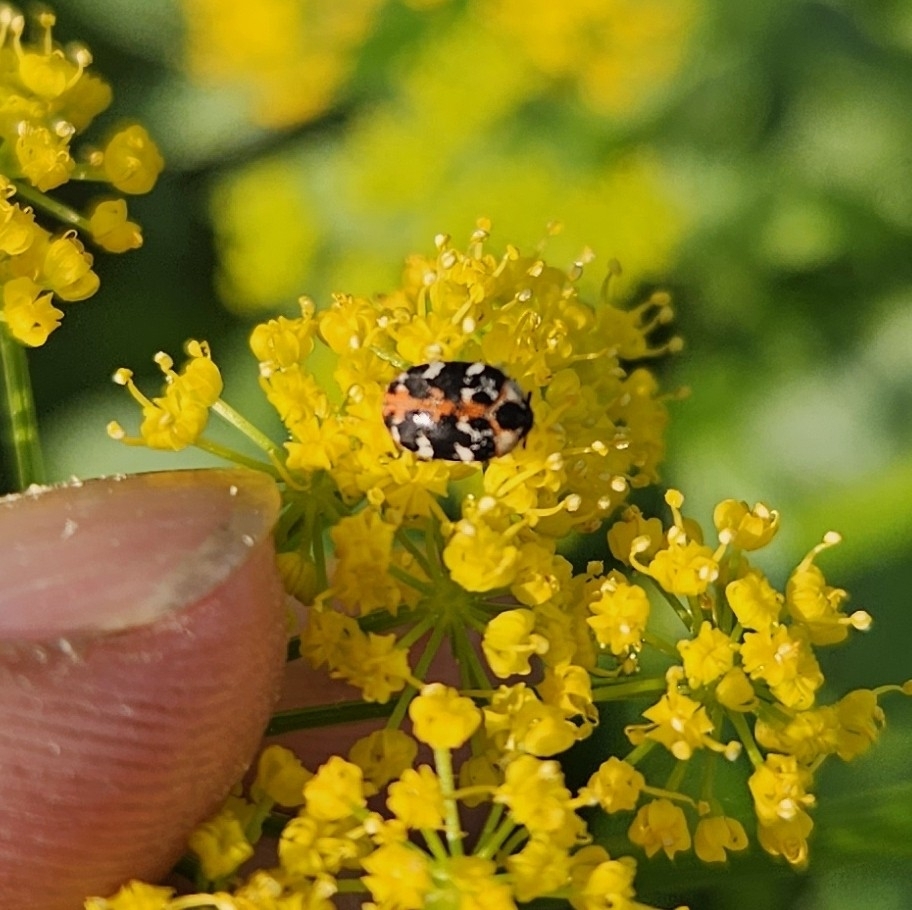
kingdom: Animalia
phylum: Arthropoda
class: Insecta
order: Coleoptera
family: Dermestidae
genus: Anthrenus
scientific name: Anthrenus scrophulariae
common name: Buffalo carpet beetle
